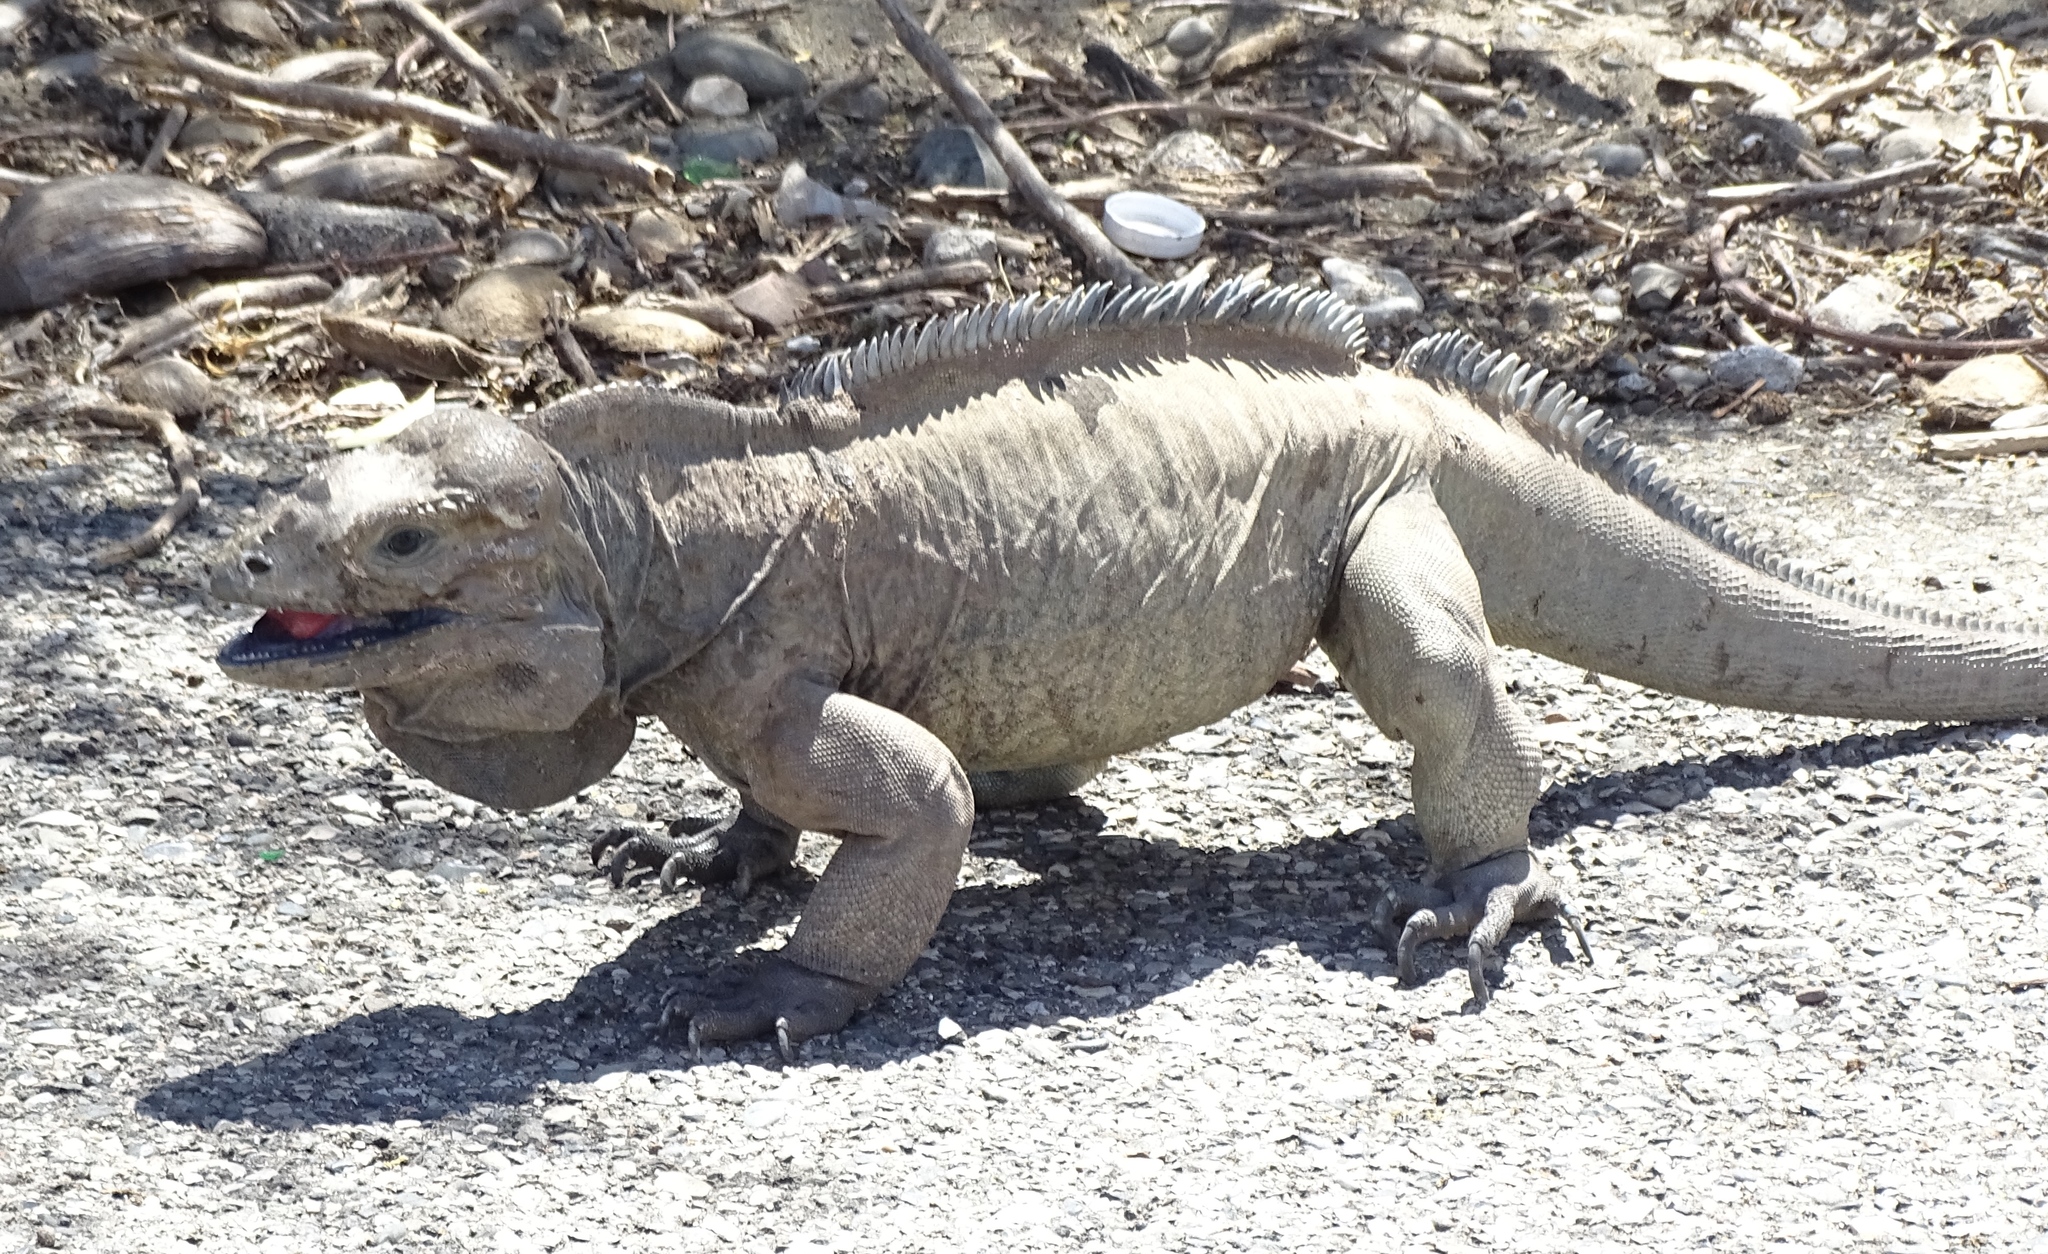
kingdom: Animalia
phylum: Chordata
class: Squamata
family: Iguanidae
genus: Cyclura
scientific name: Cyclura cornuta
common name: Hispaniolan rhinoceros iguana
